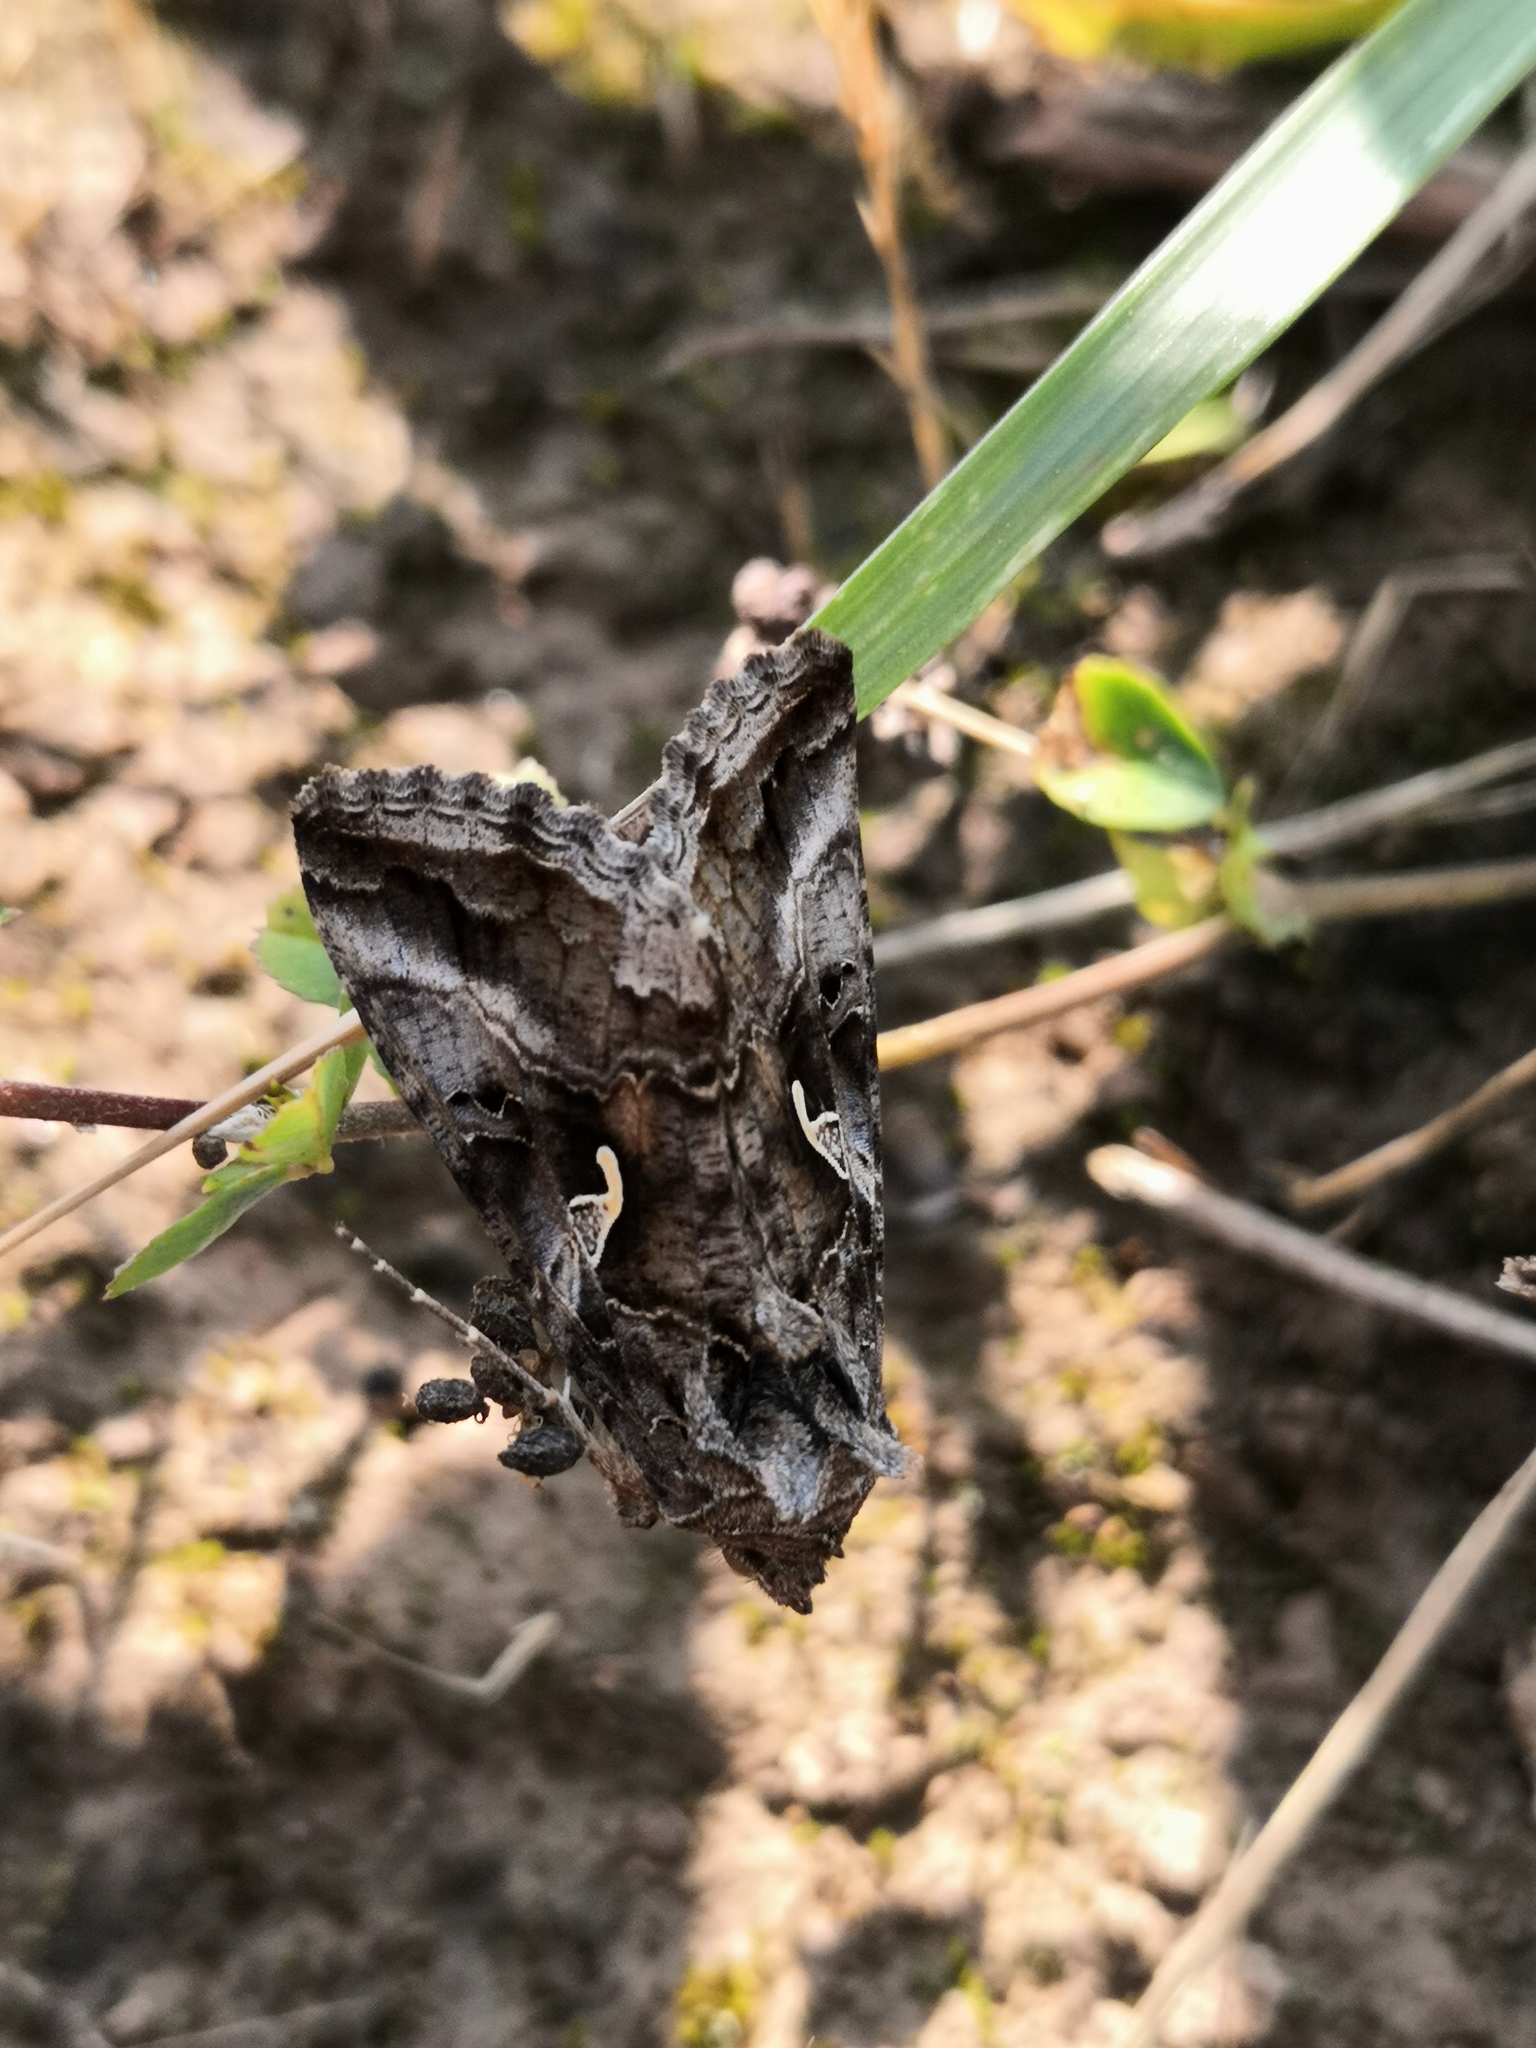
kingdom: Animalia
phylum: Arthropoda
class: Insecta
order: Lepidoptera
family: Noctuidae
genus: Autographa
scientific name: Autographa gamma
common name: Silver y
